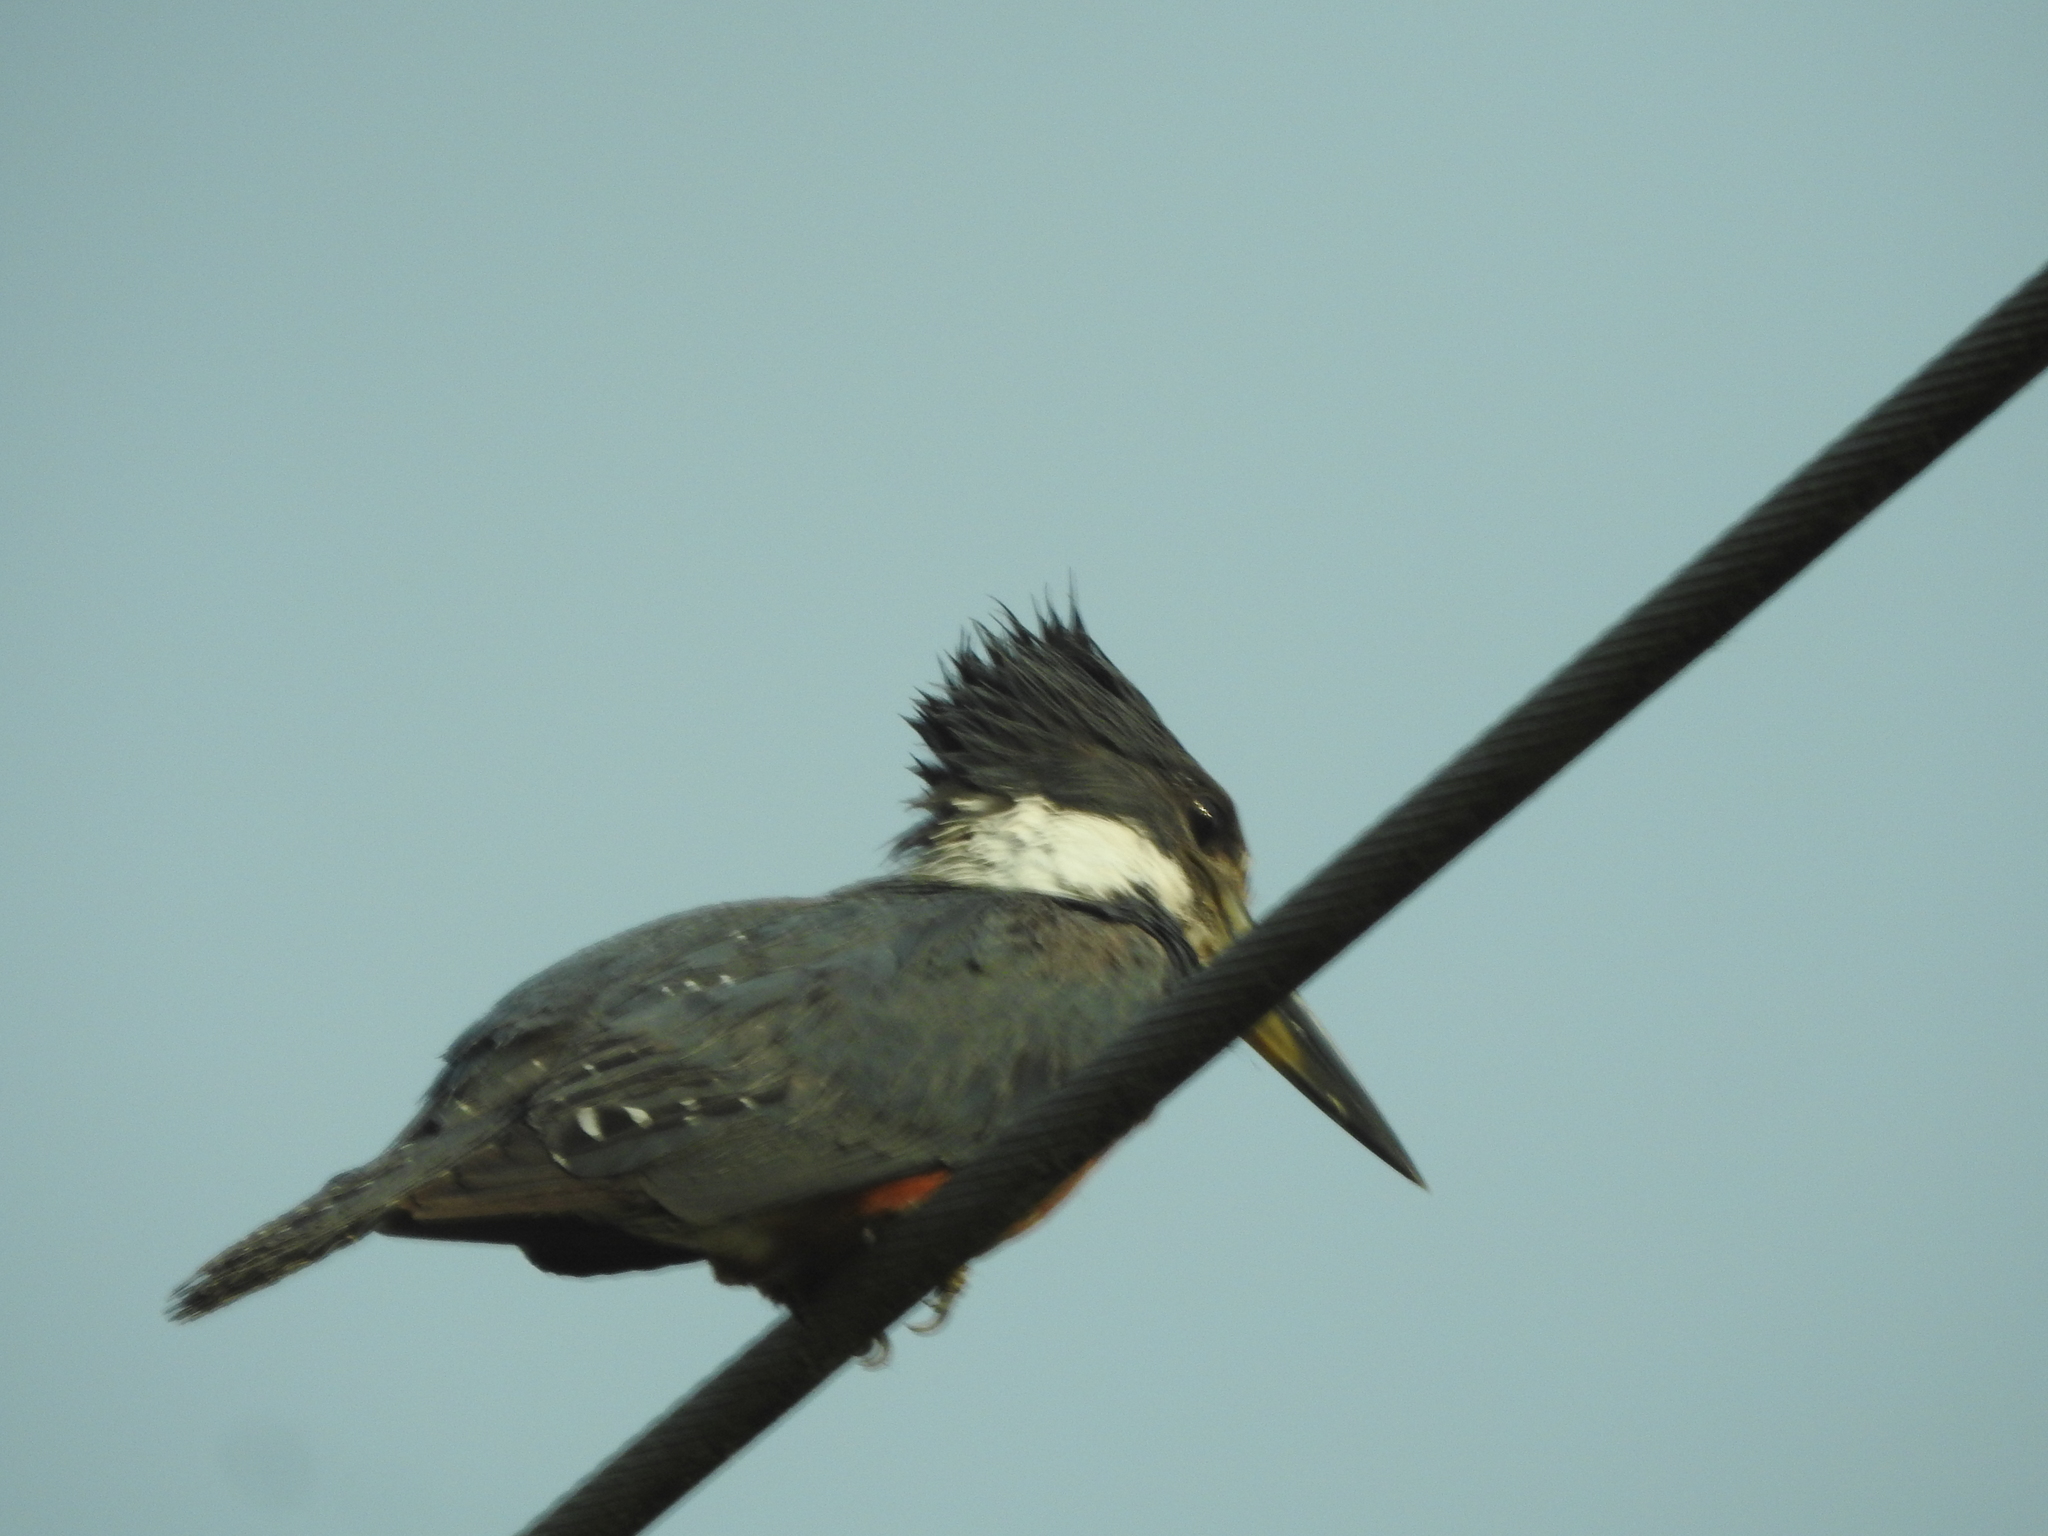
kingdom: Animalia
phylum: Chordata
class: Aves
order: Coraciiformes
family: Alcedinidae
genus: Megaceryle
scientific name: Megaceryle torquata
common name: Ringed kingfisher
